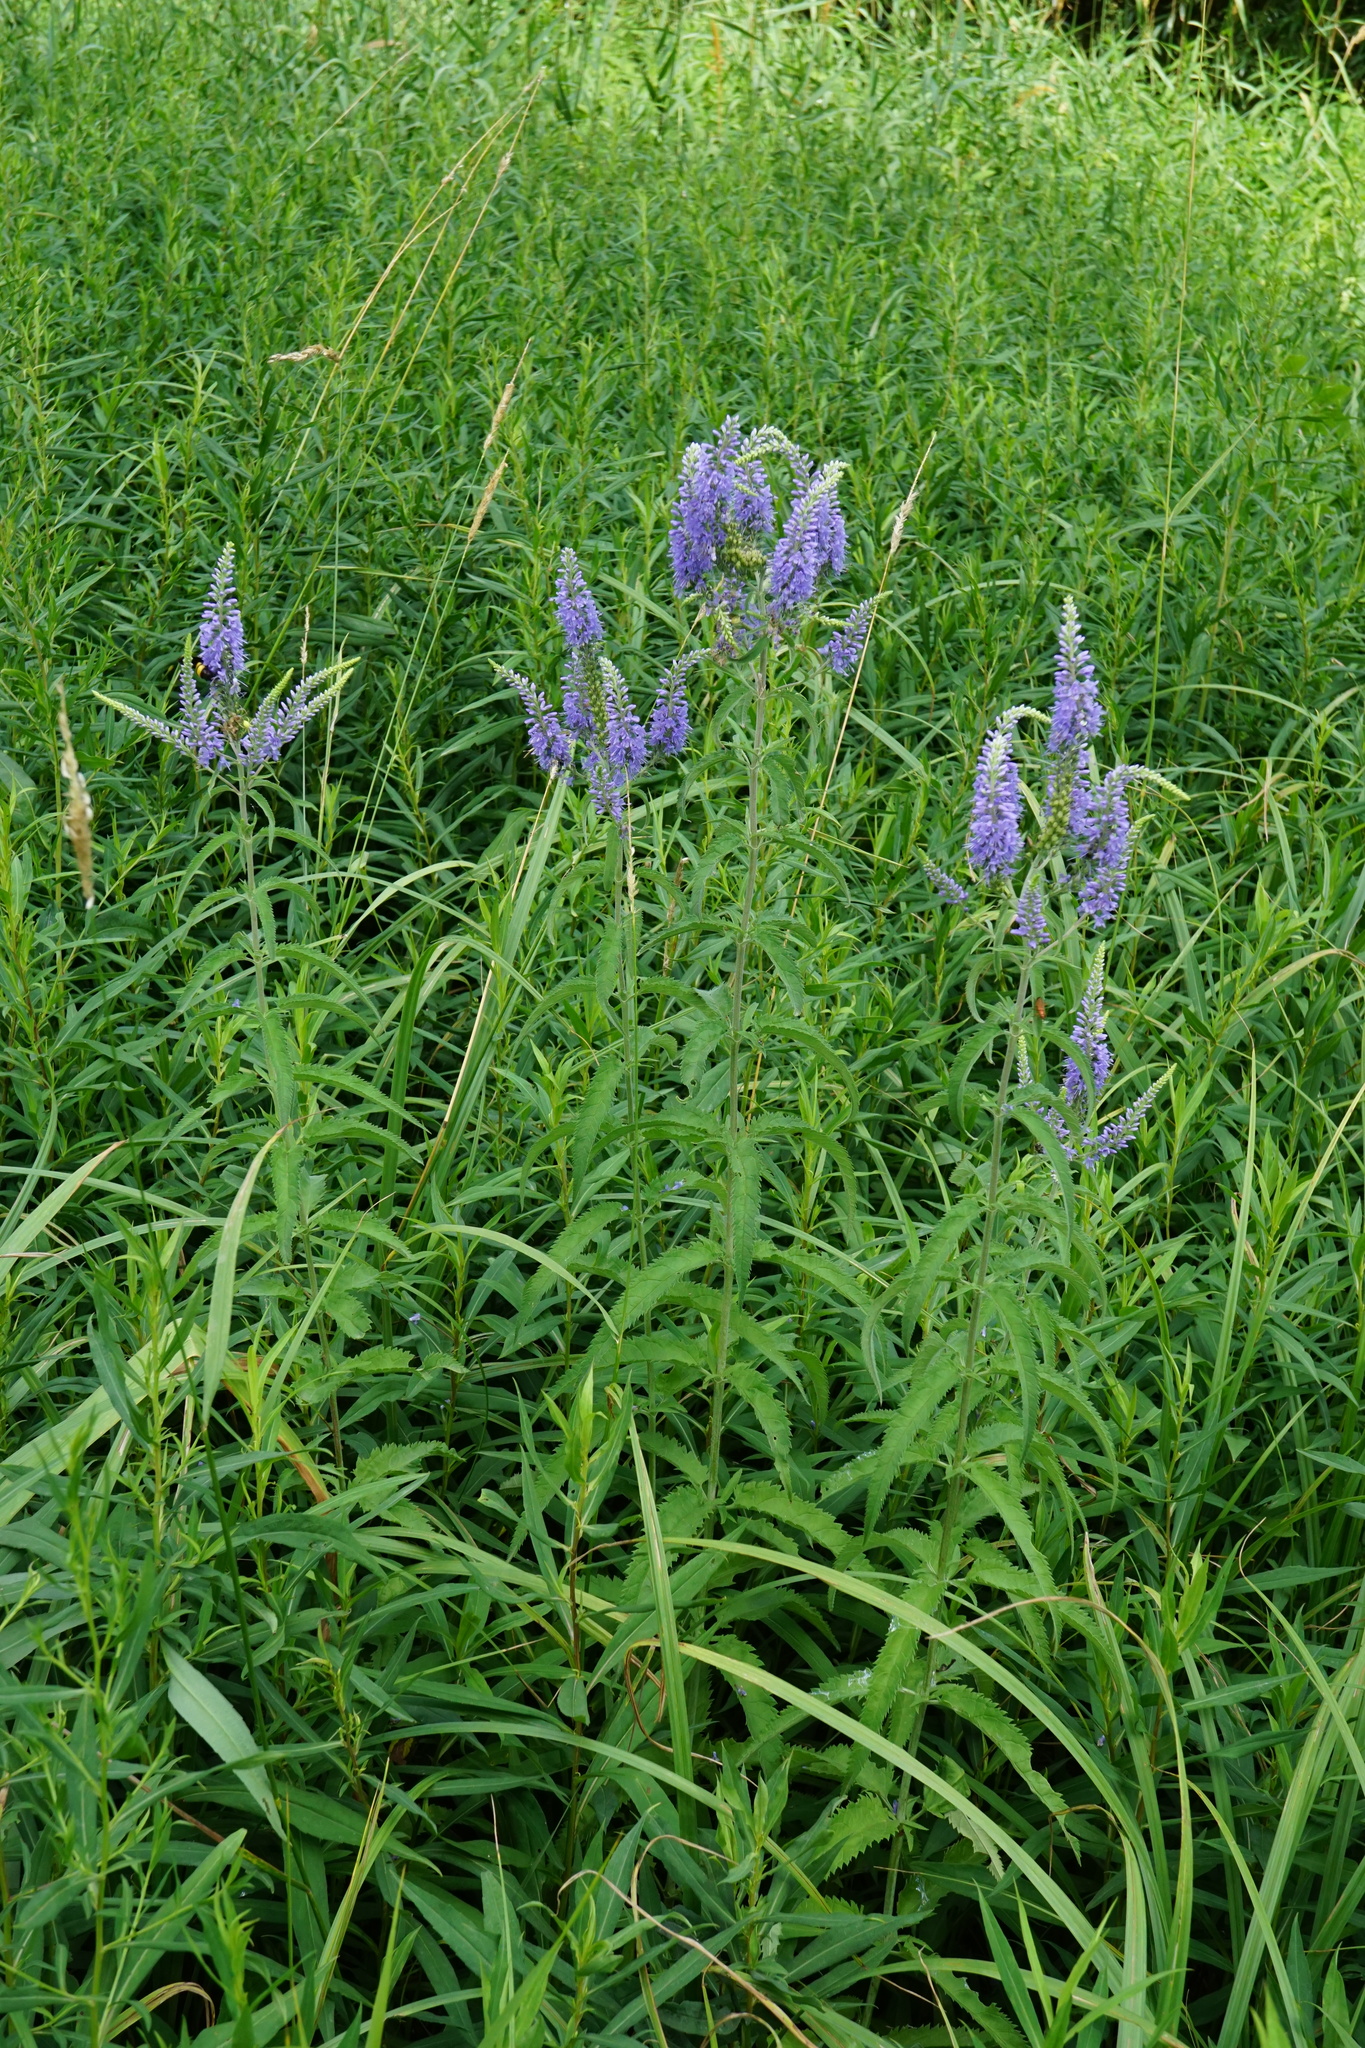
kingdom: Plantae
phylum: Tracheophyta
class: Magnoliopsida
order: Lamiales
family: Plantaginaceae
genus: Veronica
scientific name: Veronica longifolia
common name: Garden speedwell
